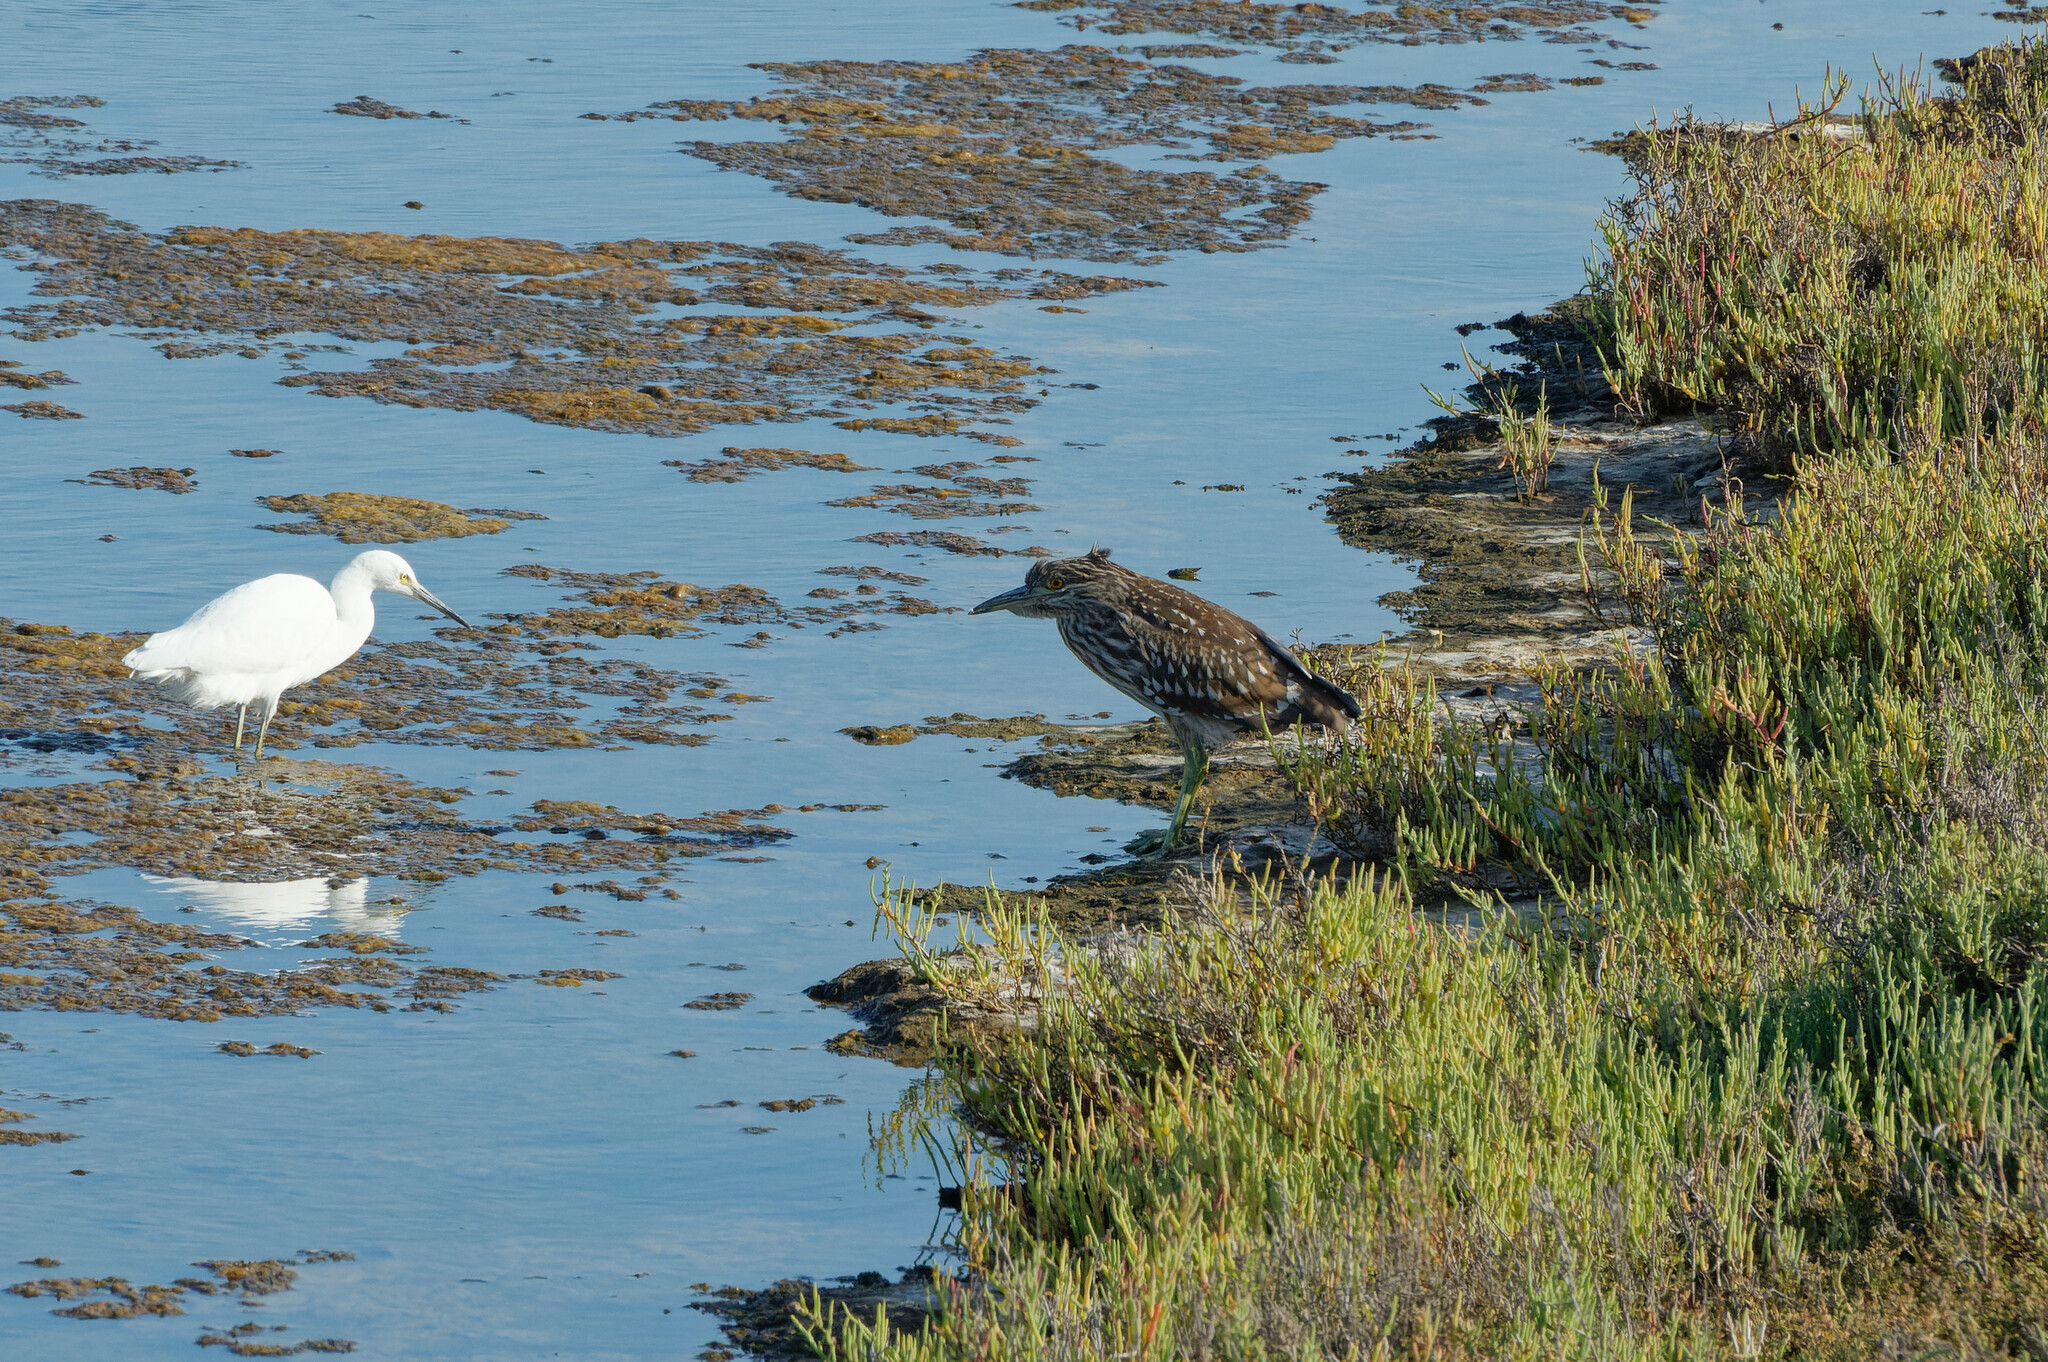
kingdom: Animalia
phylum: Chordata
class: Aves
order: Pelecaniformes
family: Ardeidae
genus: Nycticorax
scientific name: Nycticorax nycticorax
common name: Black-crowned night heron
